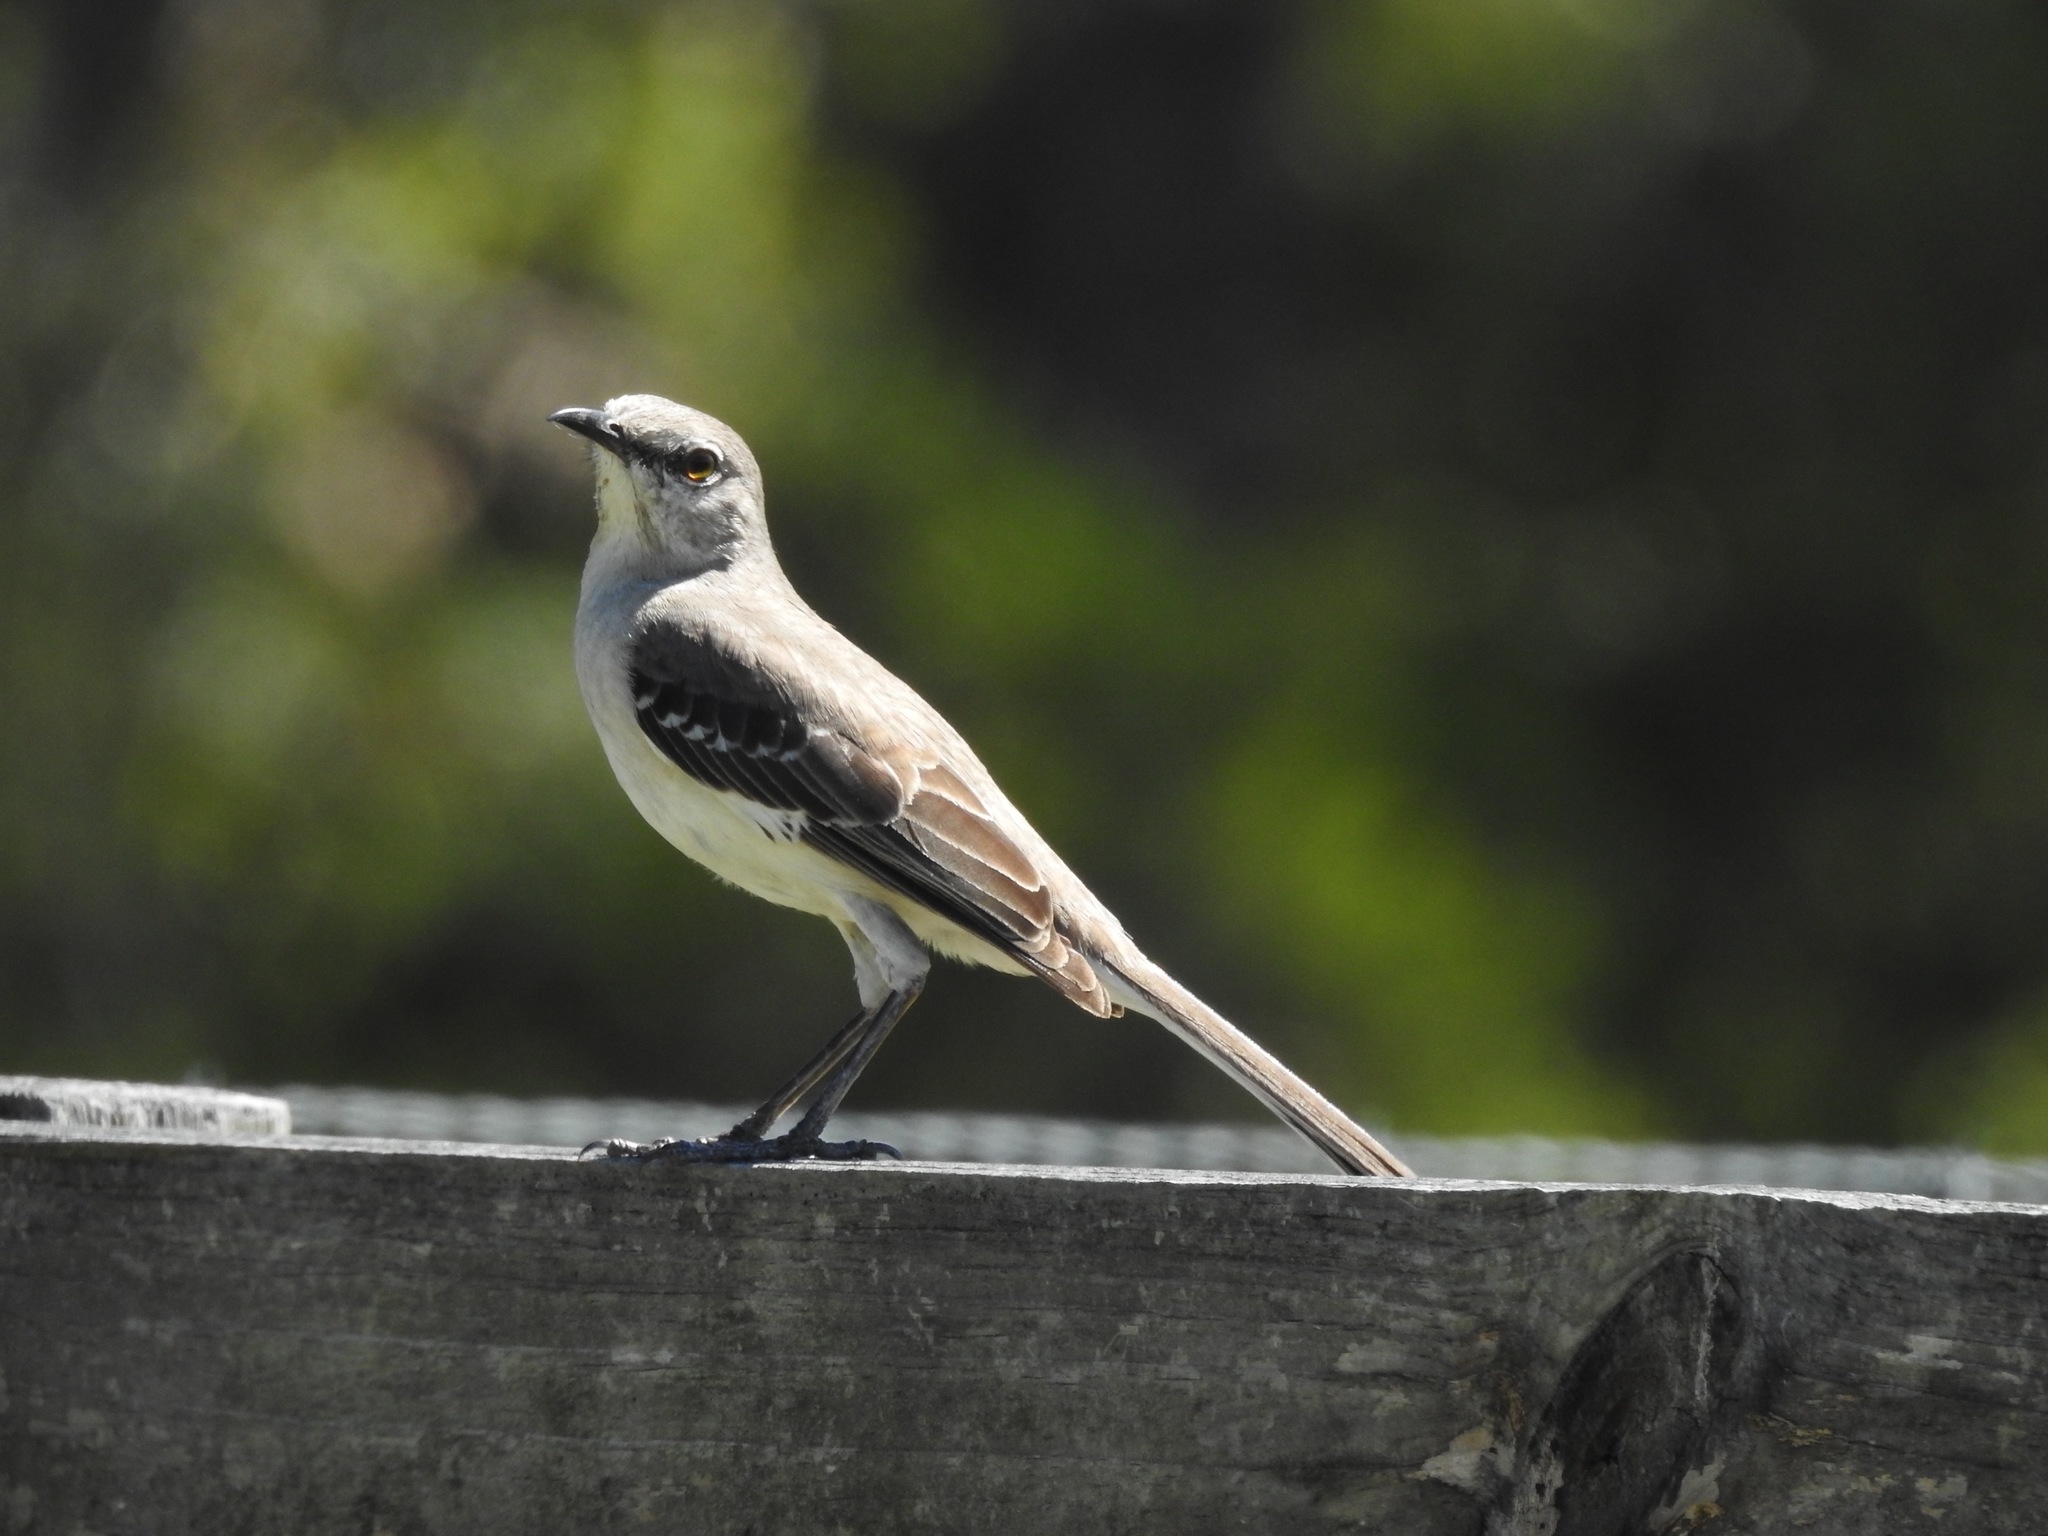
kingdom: Animalia
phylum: Chordata
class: Aves
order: Passeriformes
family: Mimidae
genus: Mimus
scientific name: Mimus polyglottos
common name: Northern mockingbird
